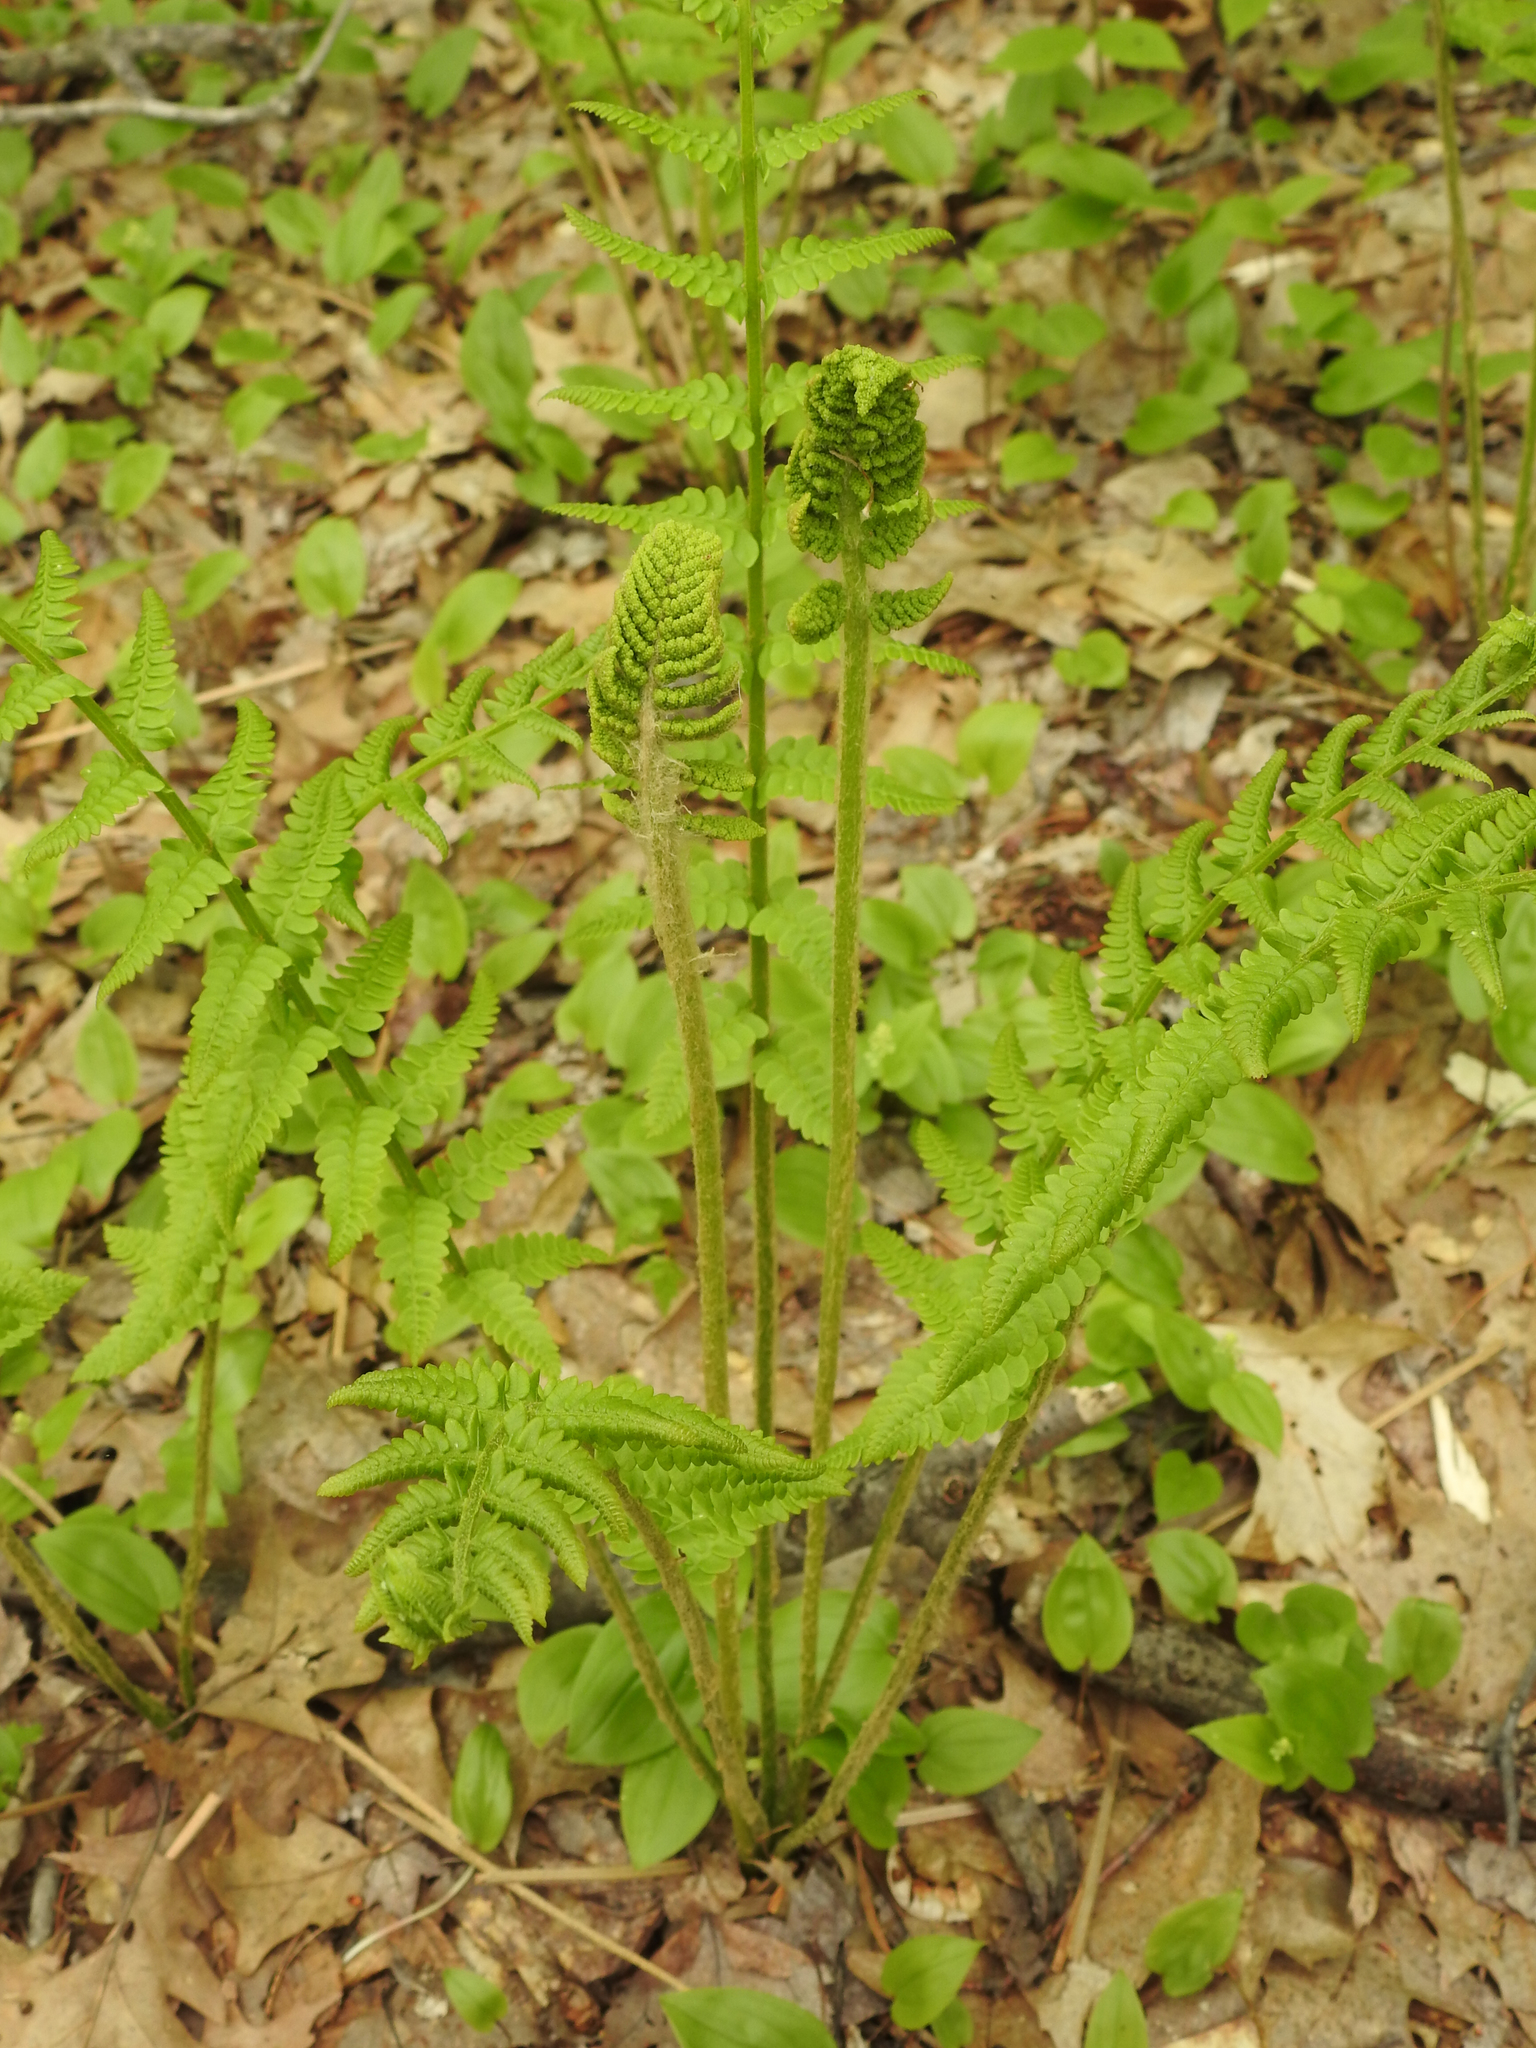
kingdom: Plantae
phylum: Tracheophyta
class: Polypodiopsida
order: Osmundales
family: Osmundaceae
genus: Osmundastrum
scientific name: Osmundastrum cinnamomeum
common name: Cinnamon fern
